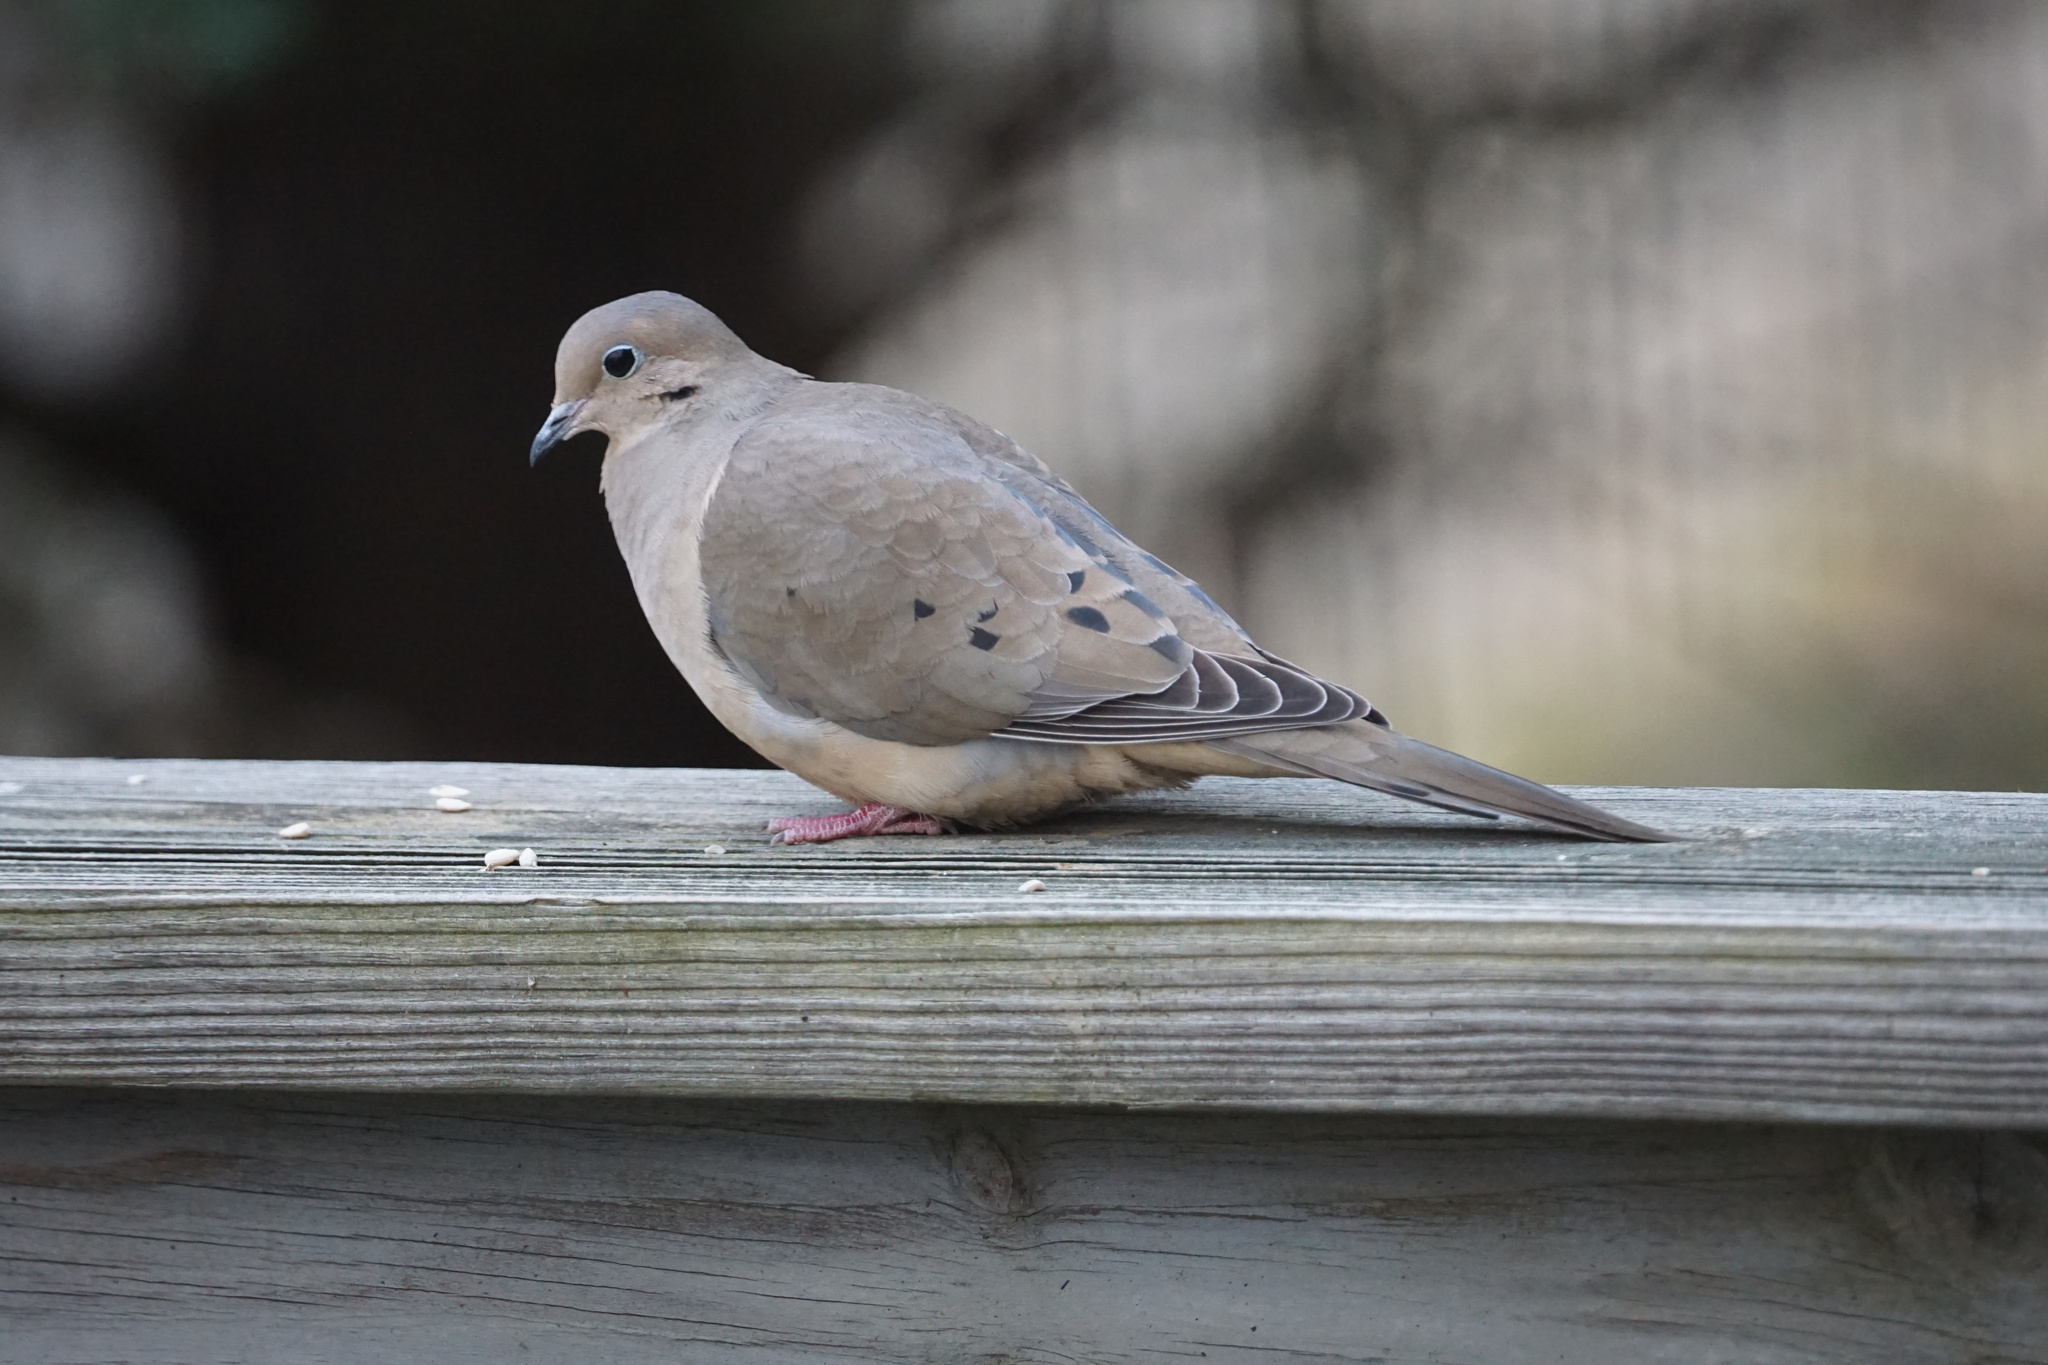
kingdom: Animalia
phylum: Chordata
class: Aves
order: Columbiformes
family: Columbidae
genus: Zenaida
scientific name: Zenaida macroura
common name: Mourning dove
